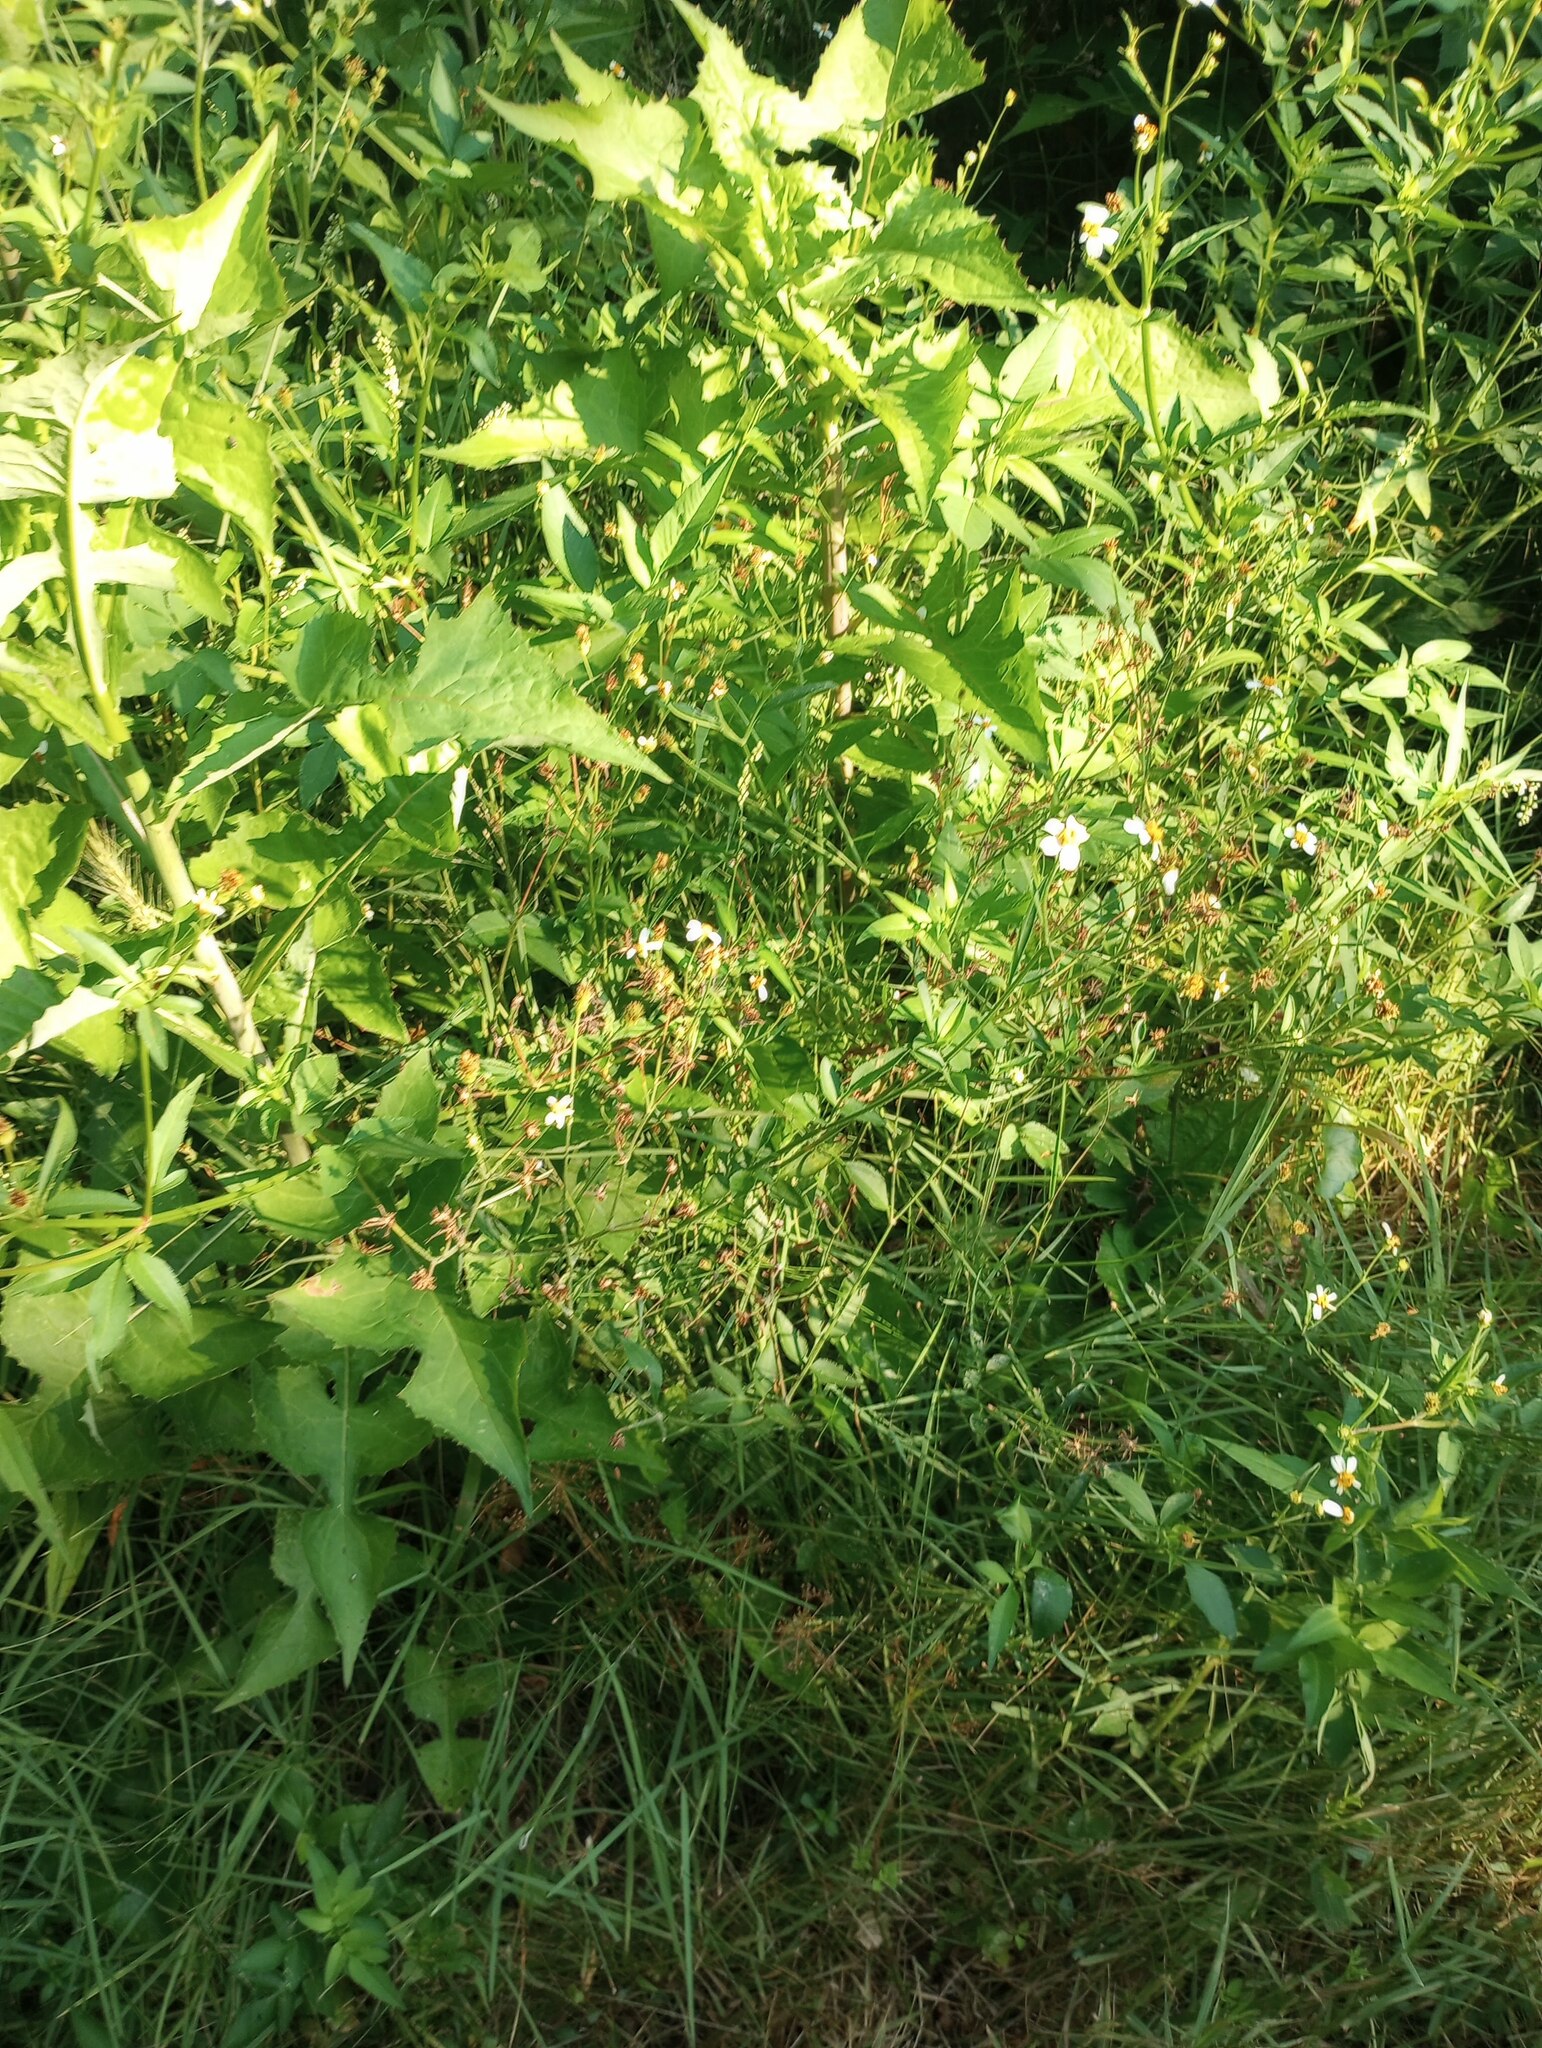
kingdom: Plantae
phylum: Tracheophyta
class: Magnoliopsida
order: Asterales
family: Asteraceae
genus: Bidens
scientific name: Bidens alba
